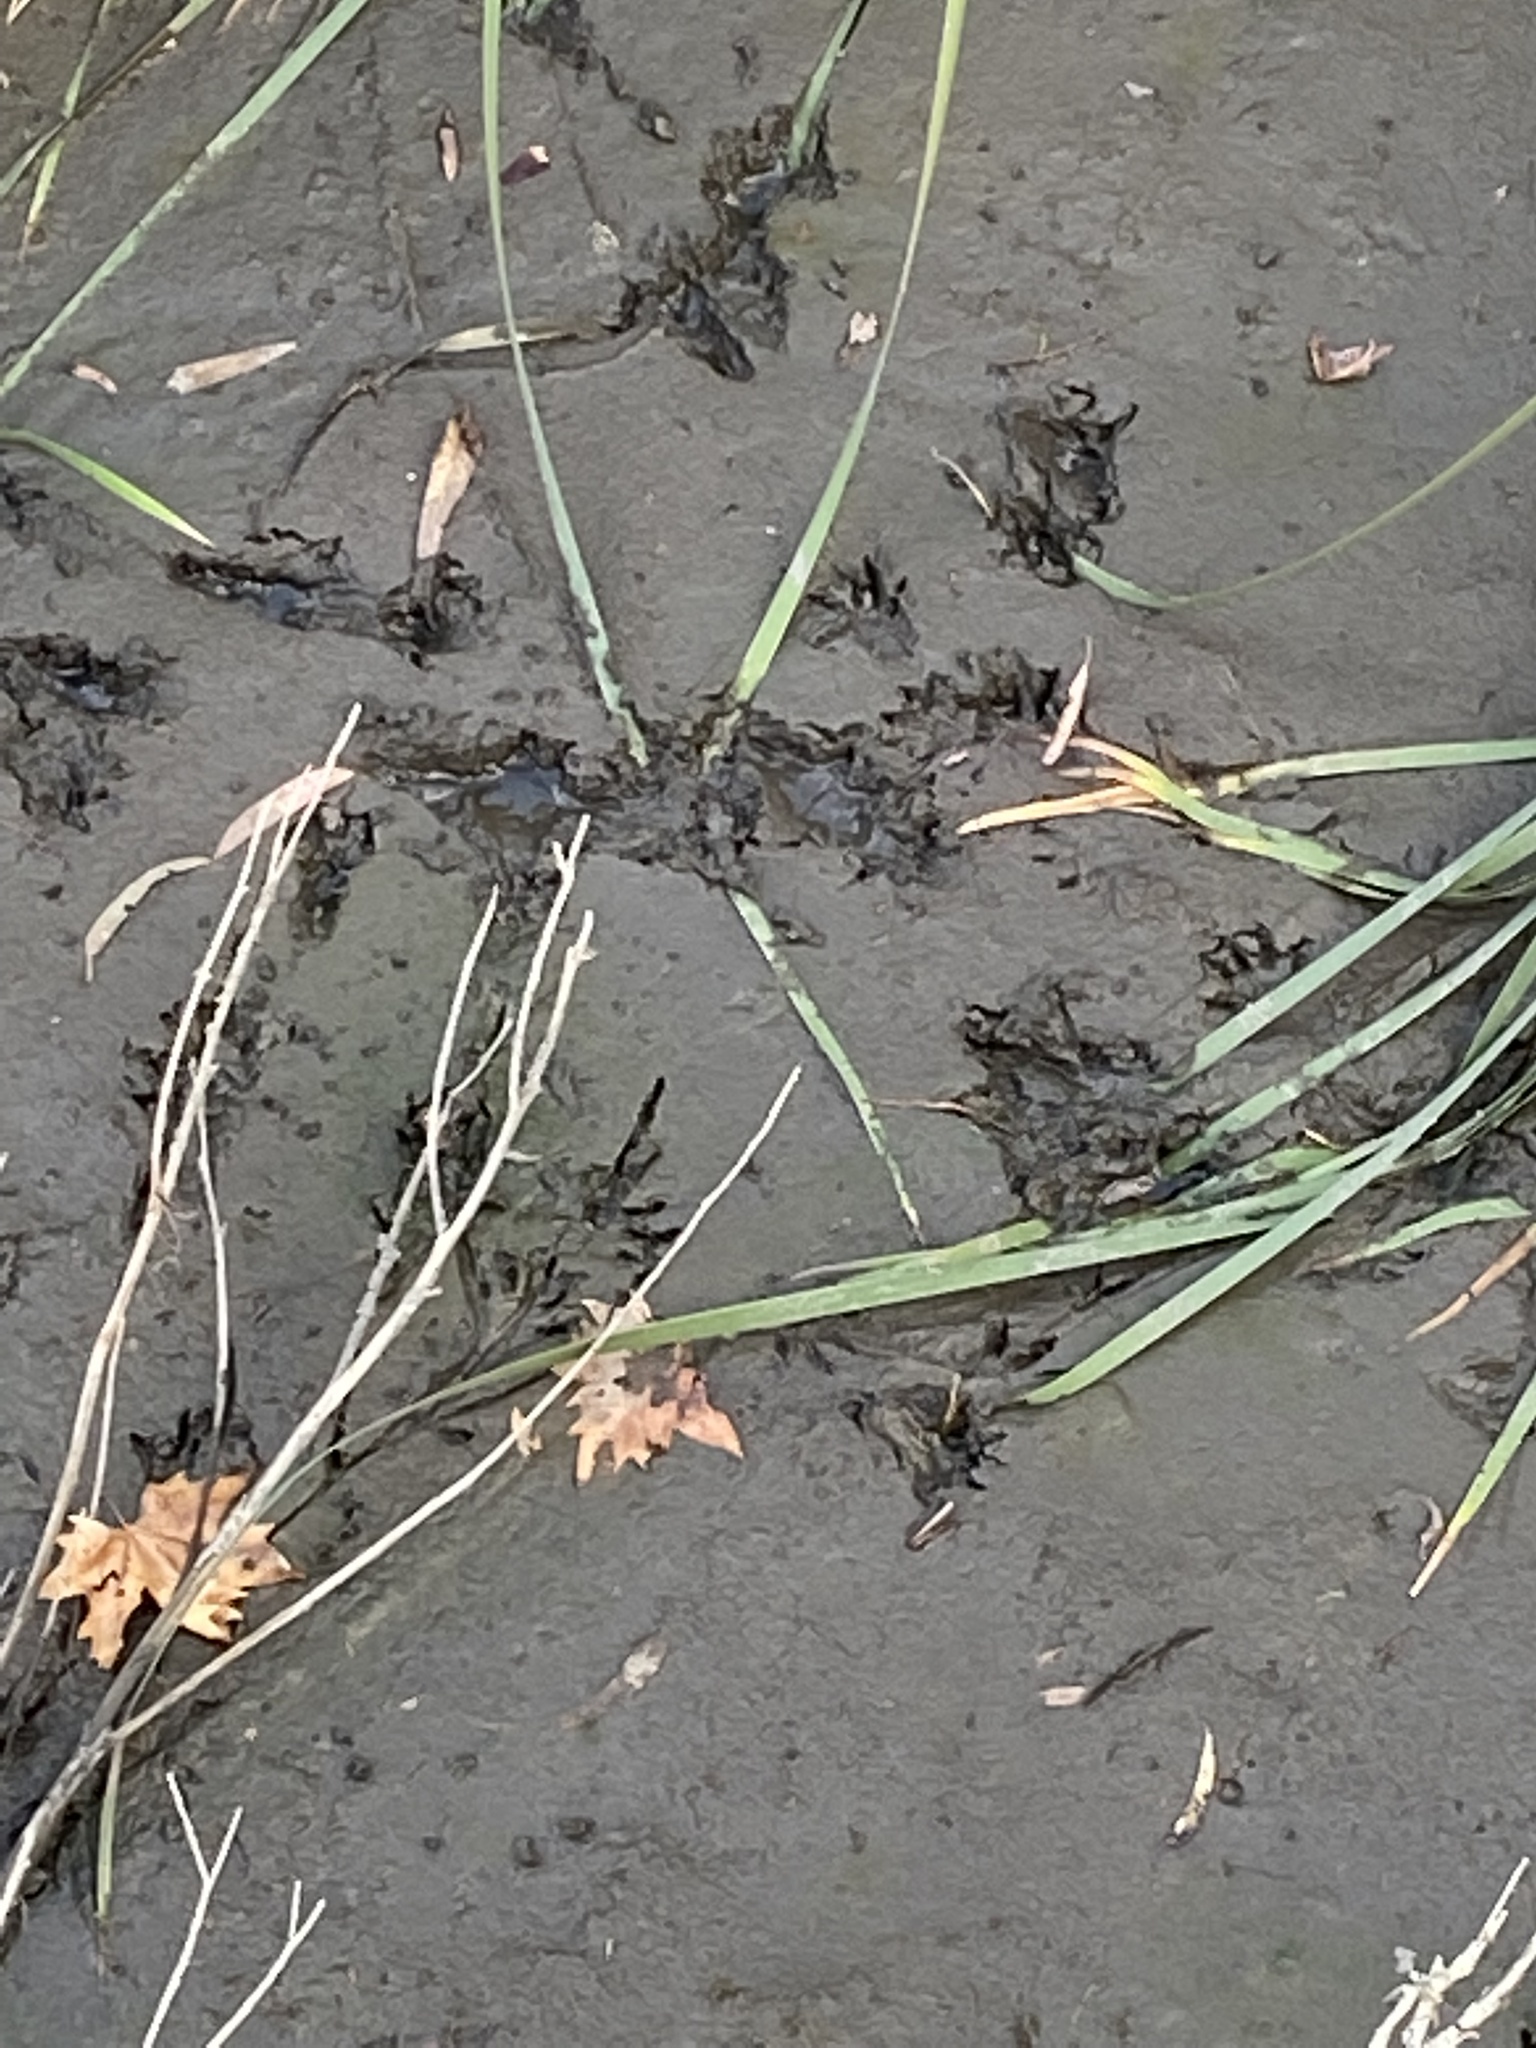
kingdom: Animalia
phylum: Chordata
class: Mammalia
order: Carnivora
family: Procyonidae
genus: Procyon
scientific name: Procyon lotor
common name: Raccoon
